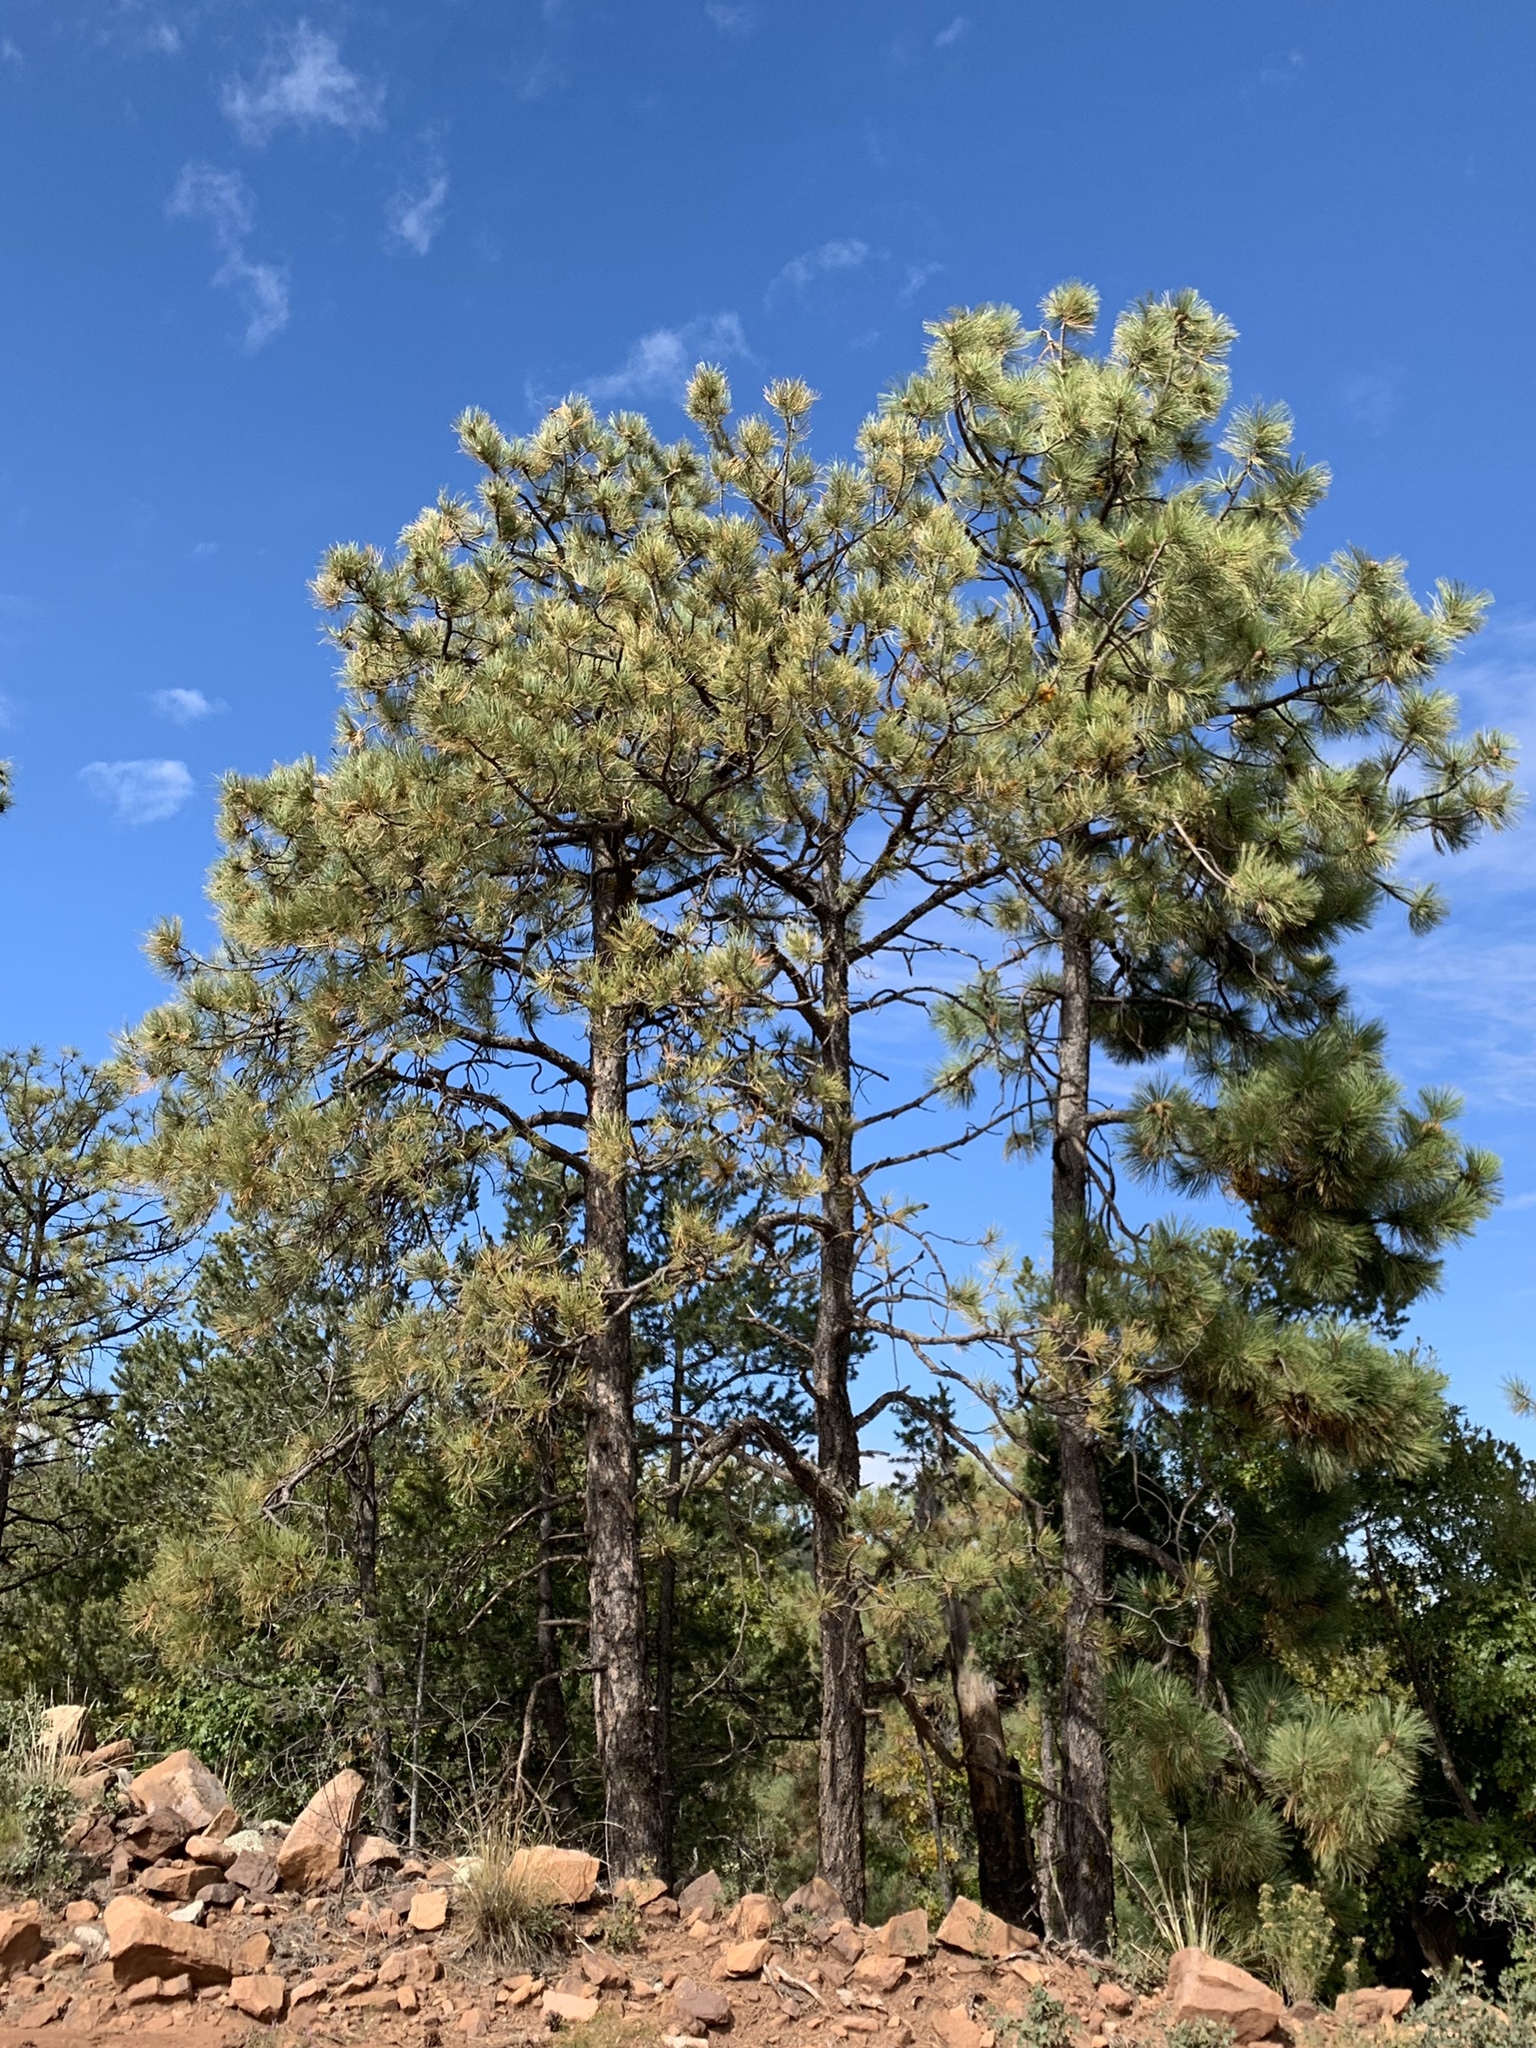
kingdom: Plantae
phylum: Tracheophyta
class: Pinopsida
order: Pinales
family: Pinaceae
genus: Pinus
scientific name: Pinus ponderosa
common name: Western yellow-pine
